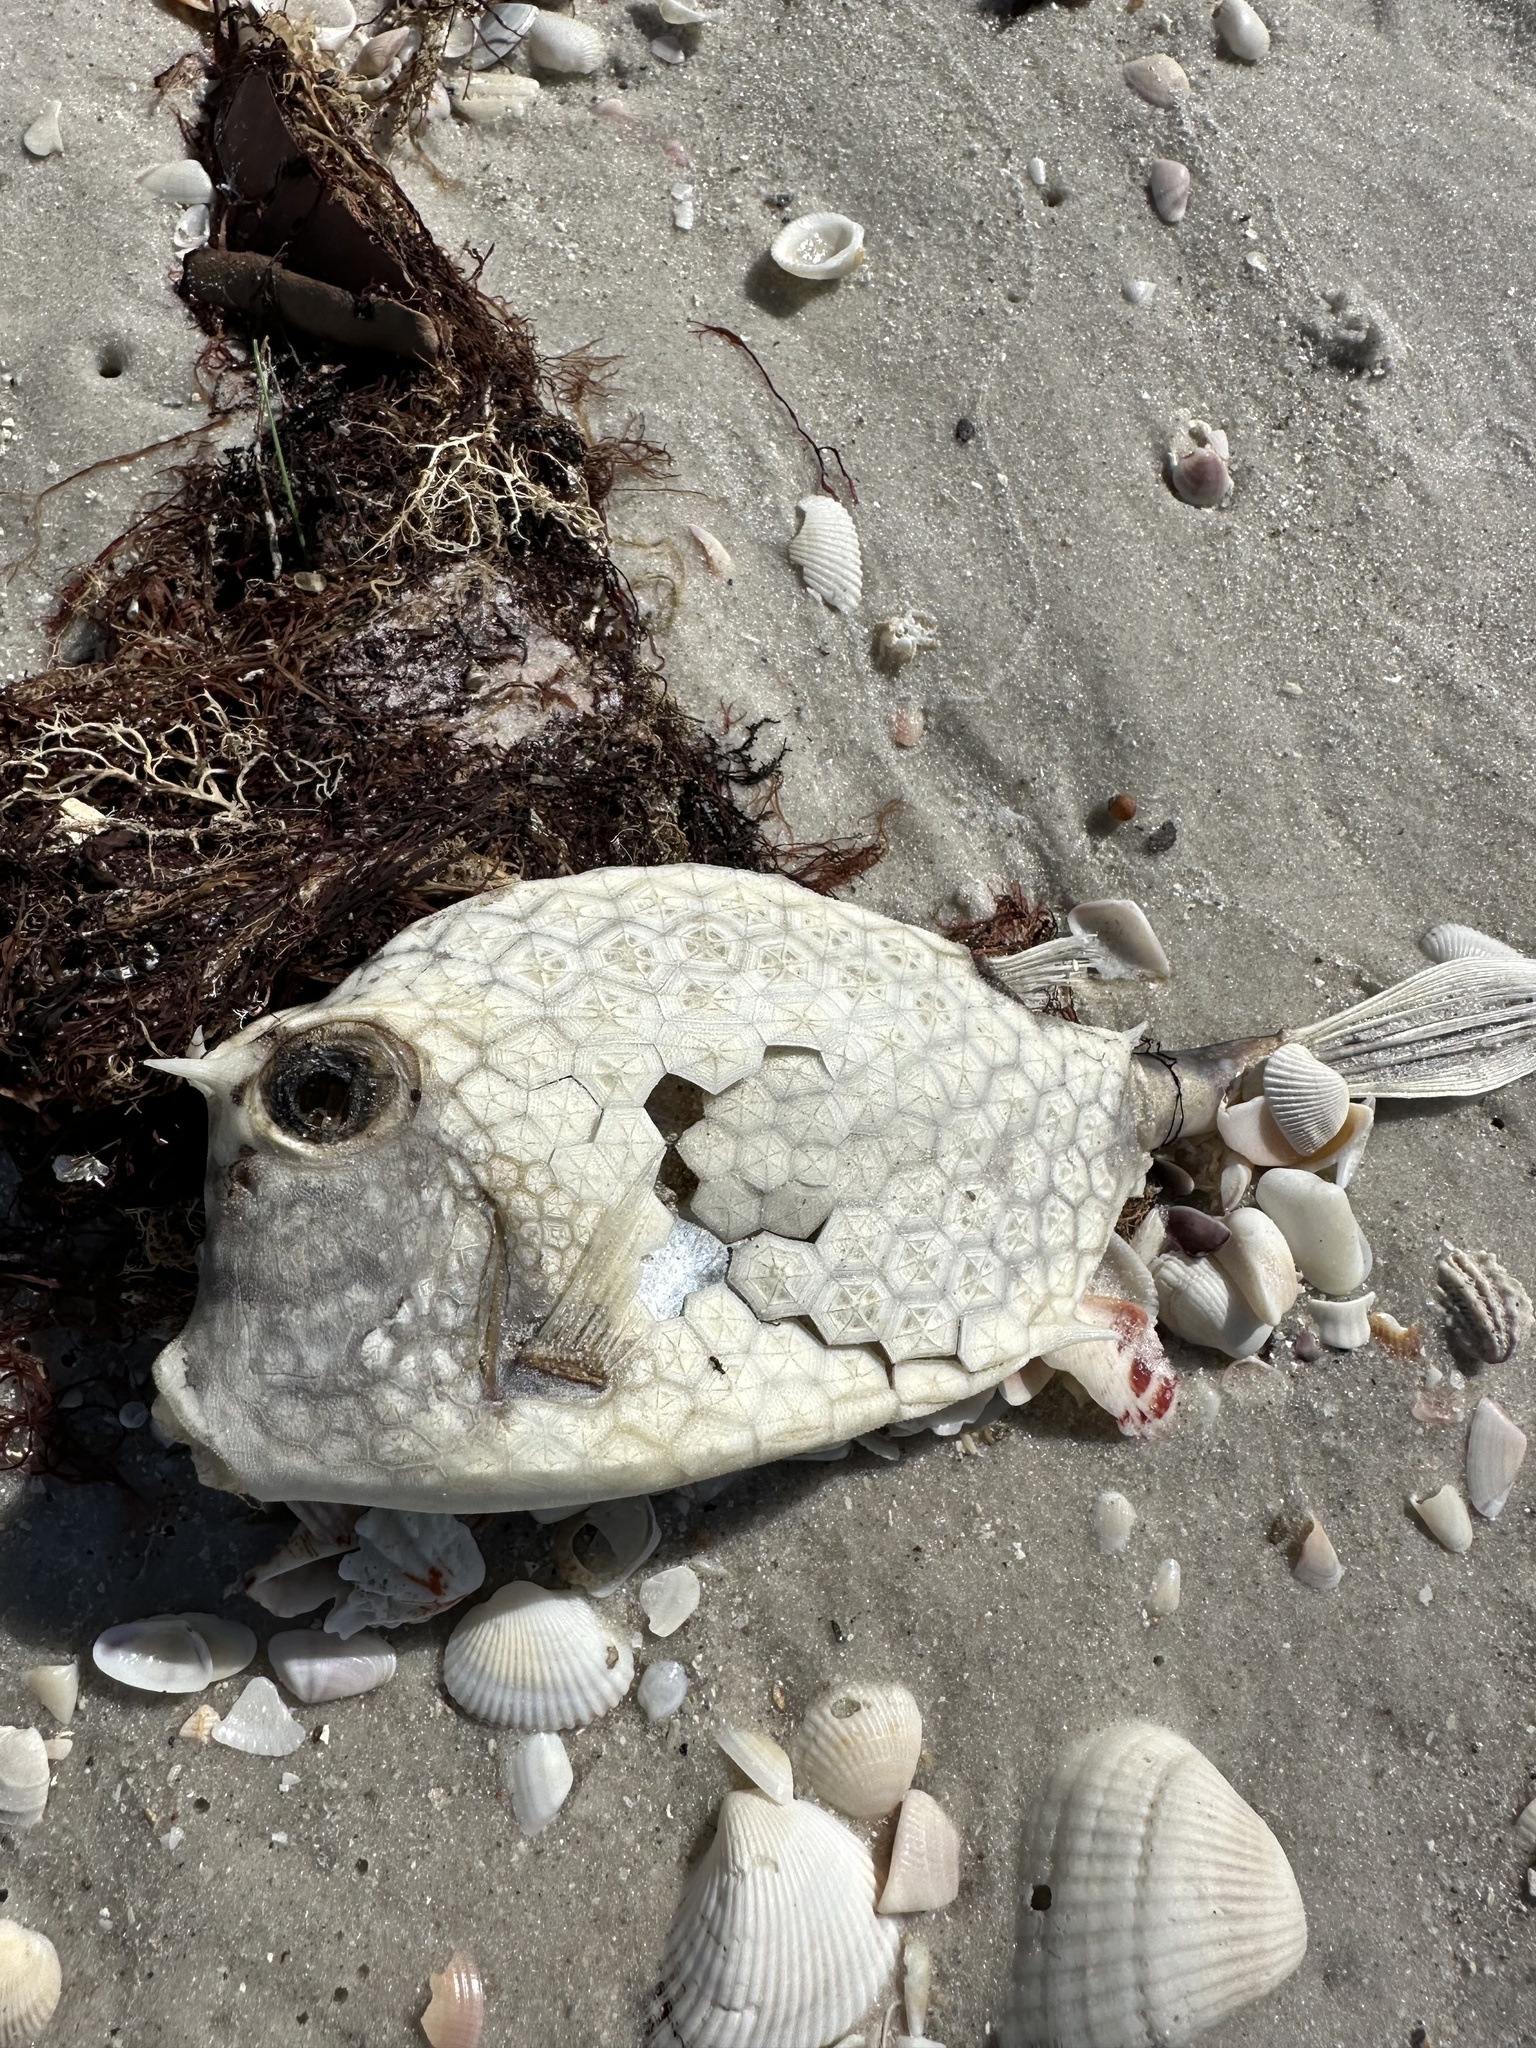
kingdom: Animalia
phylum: Chordata
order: Tetraodontiformes
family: Ostraciidae
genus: Acanthostracion
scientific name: Acanthostracion quadricornis
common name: Scrawled cowfish
